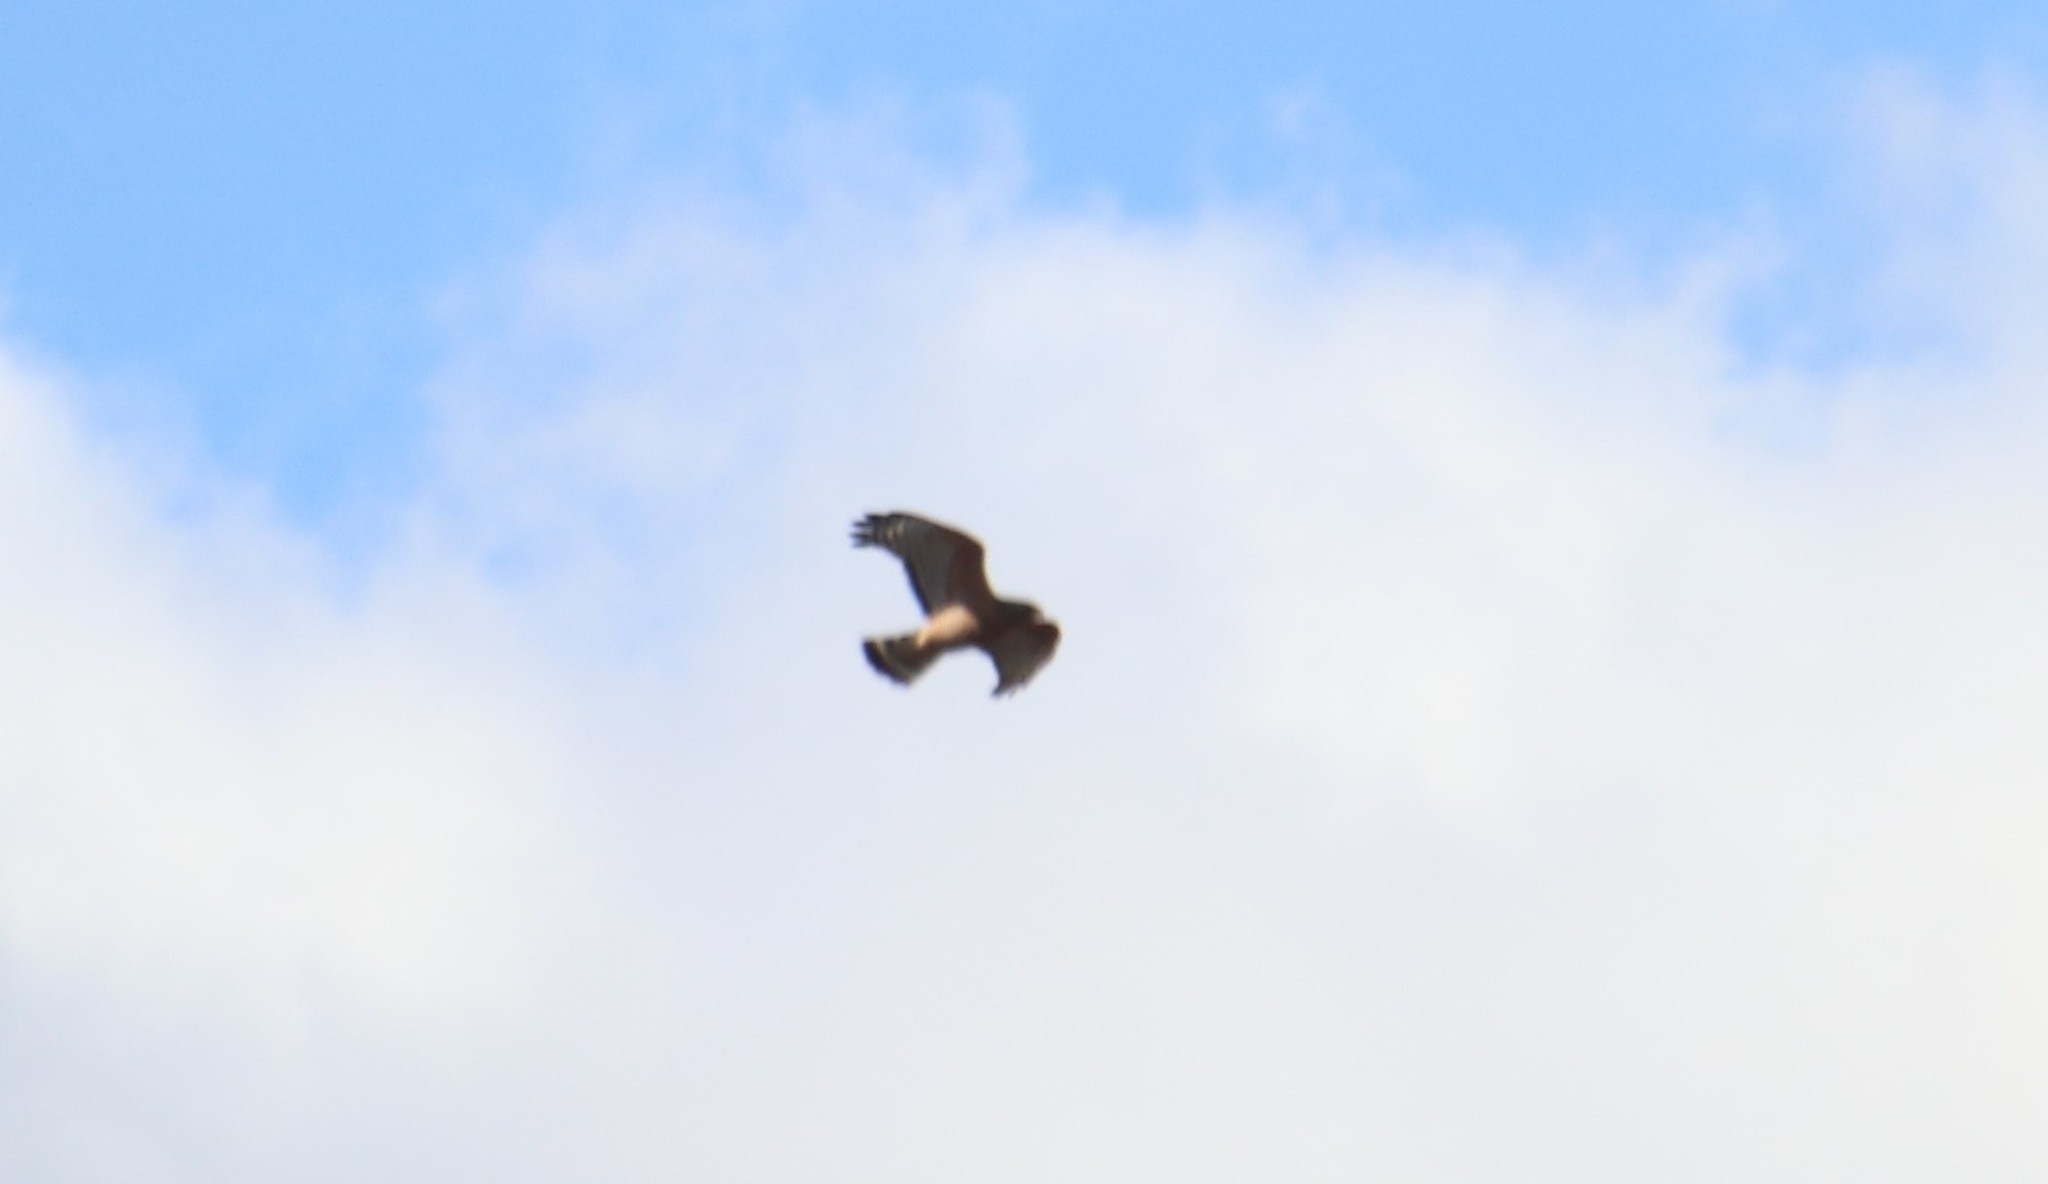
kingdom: Animalia
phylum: Chordata
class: Aves
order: Accipitriformes
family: Accipitridae
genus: Buteo
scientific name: Buteo lineatus
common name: Red-shouldered hawk
